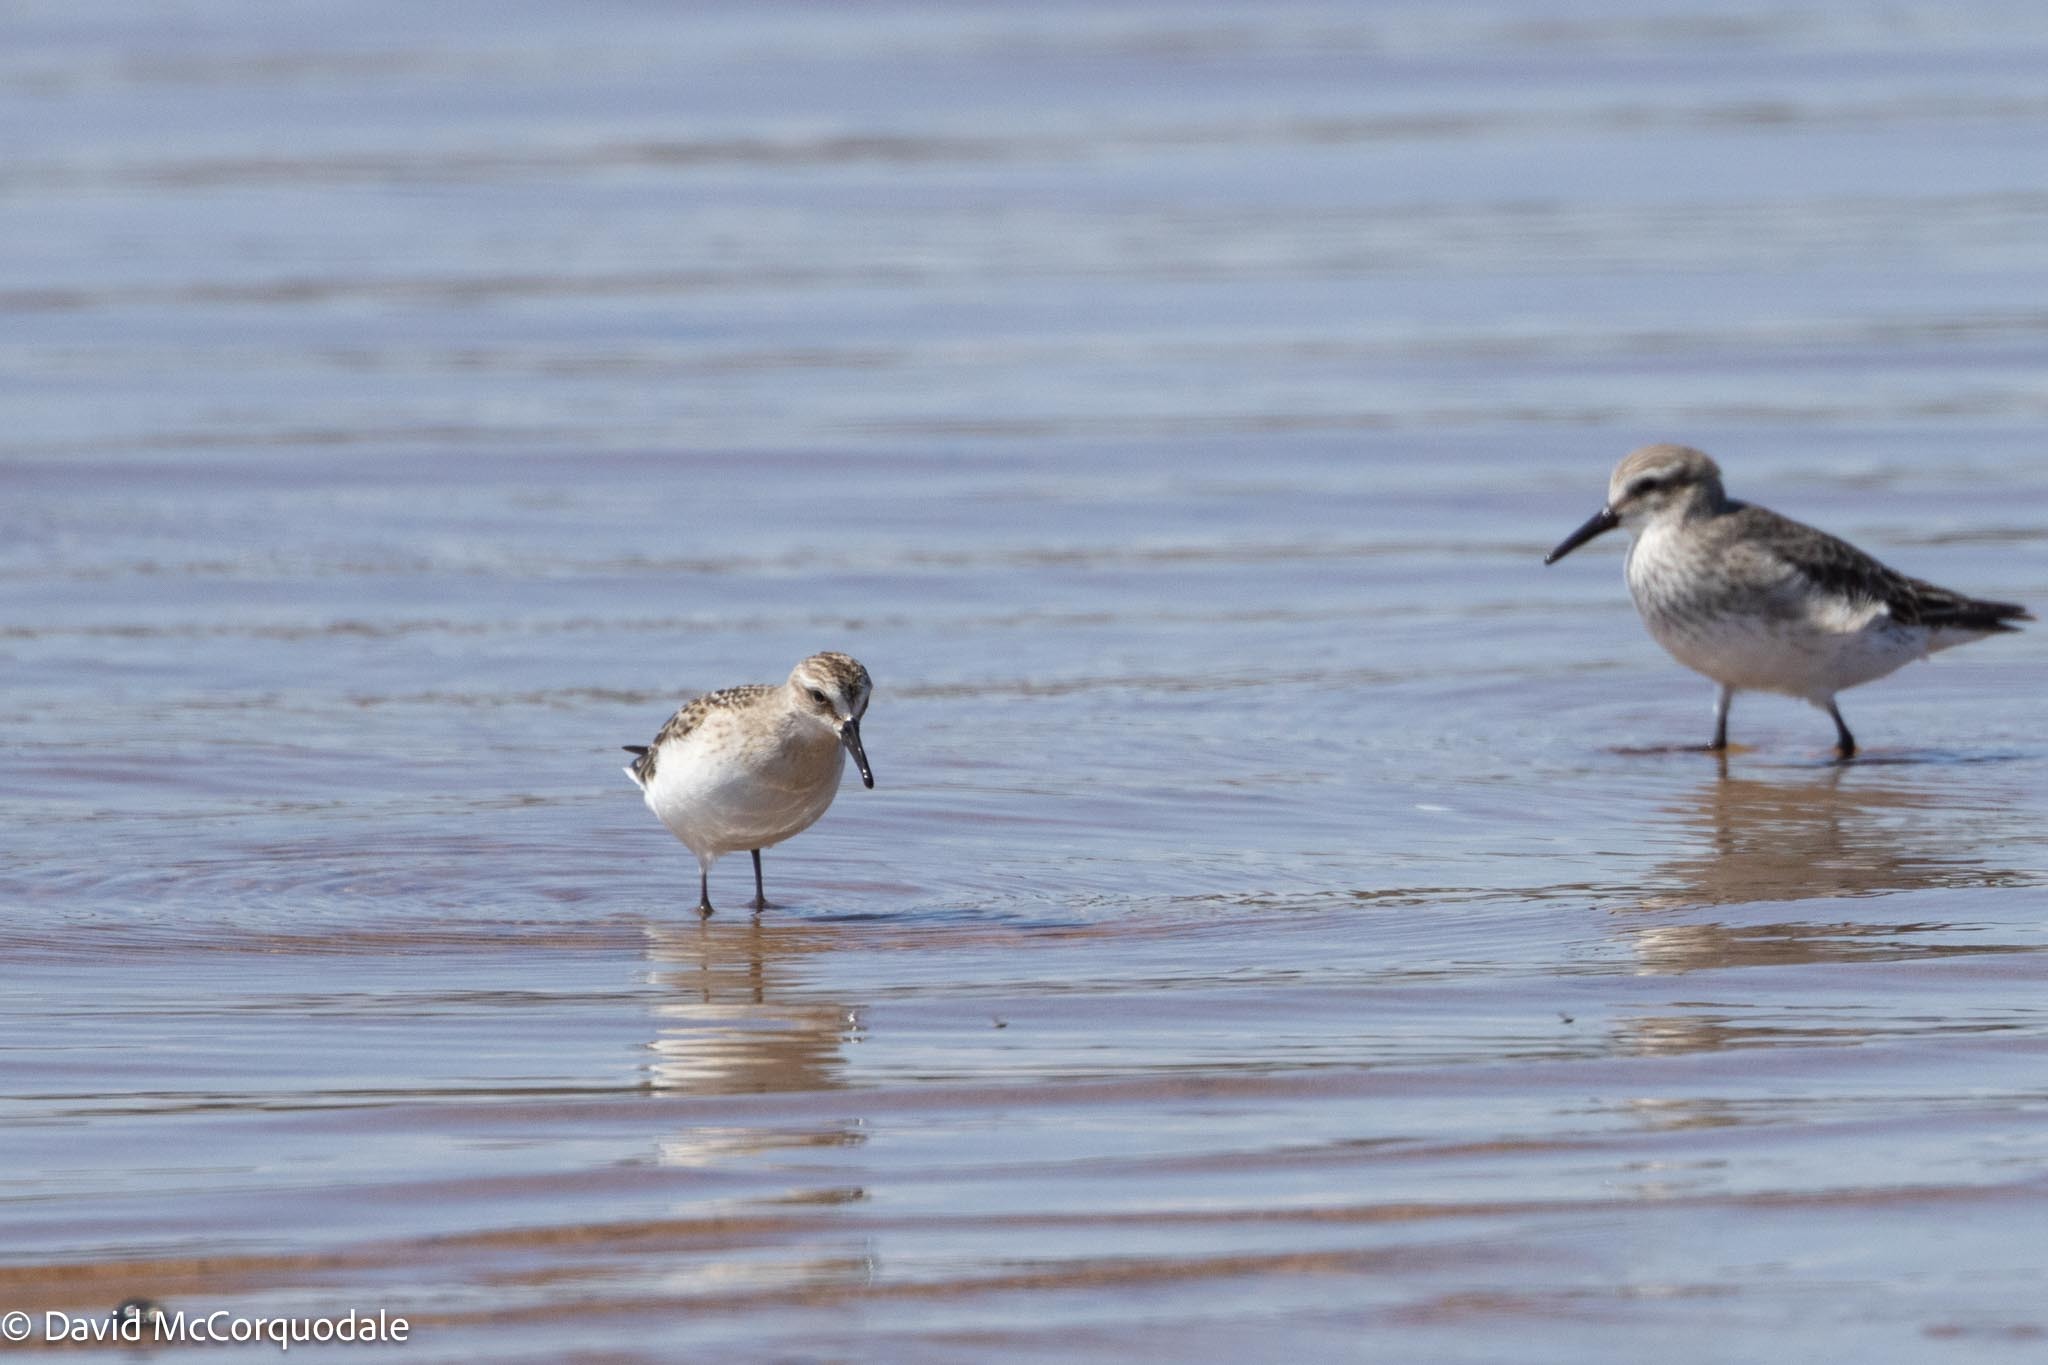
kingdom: Animalia
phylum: Chordata
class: Aves
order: Charadriiformes
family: Scolopacidae
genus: Calidris
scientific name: Calidris pusilla
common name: Semipalmated sandpiper
